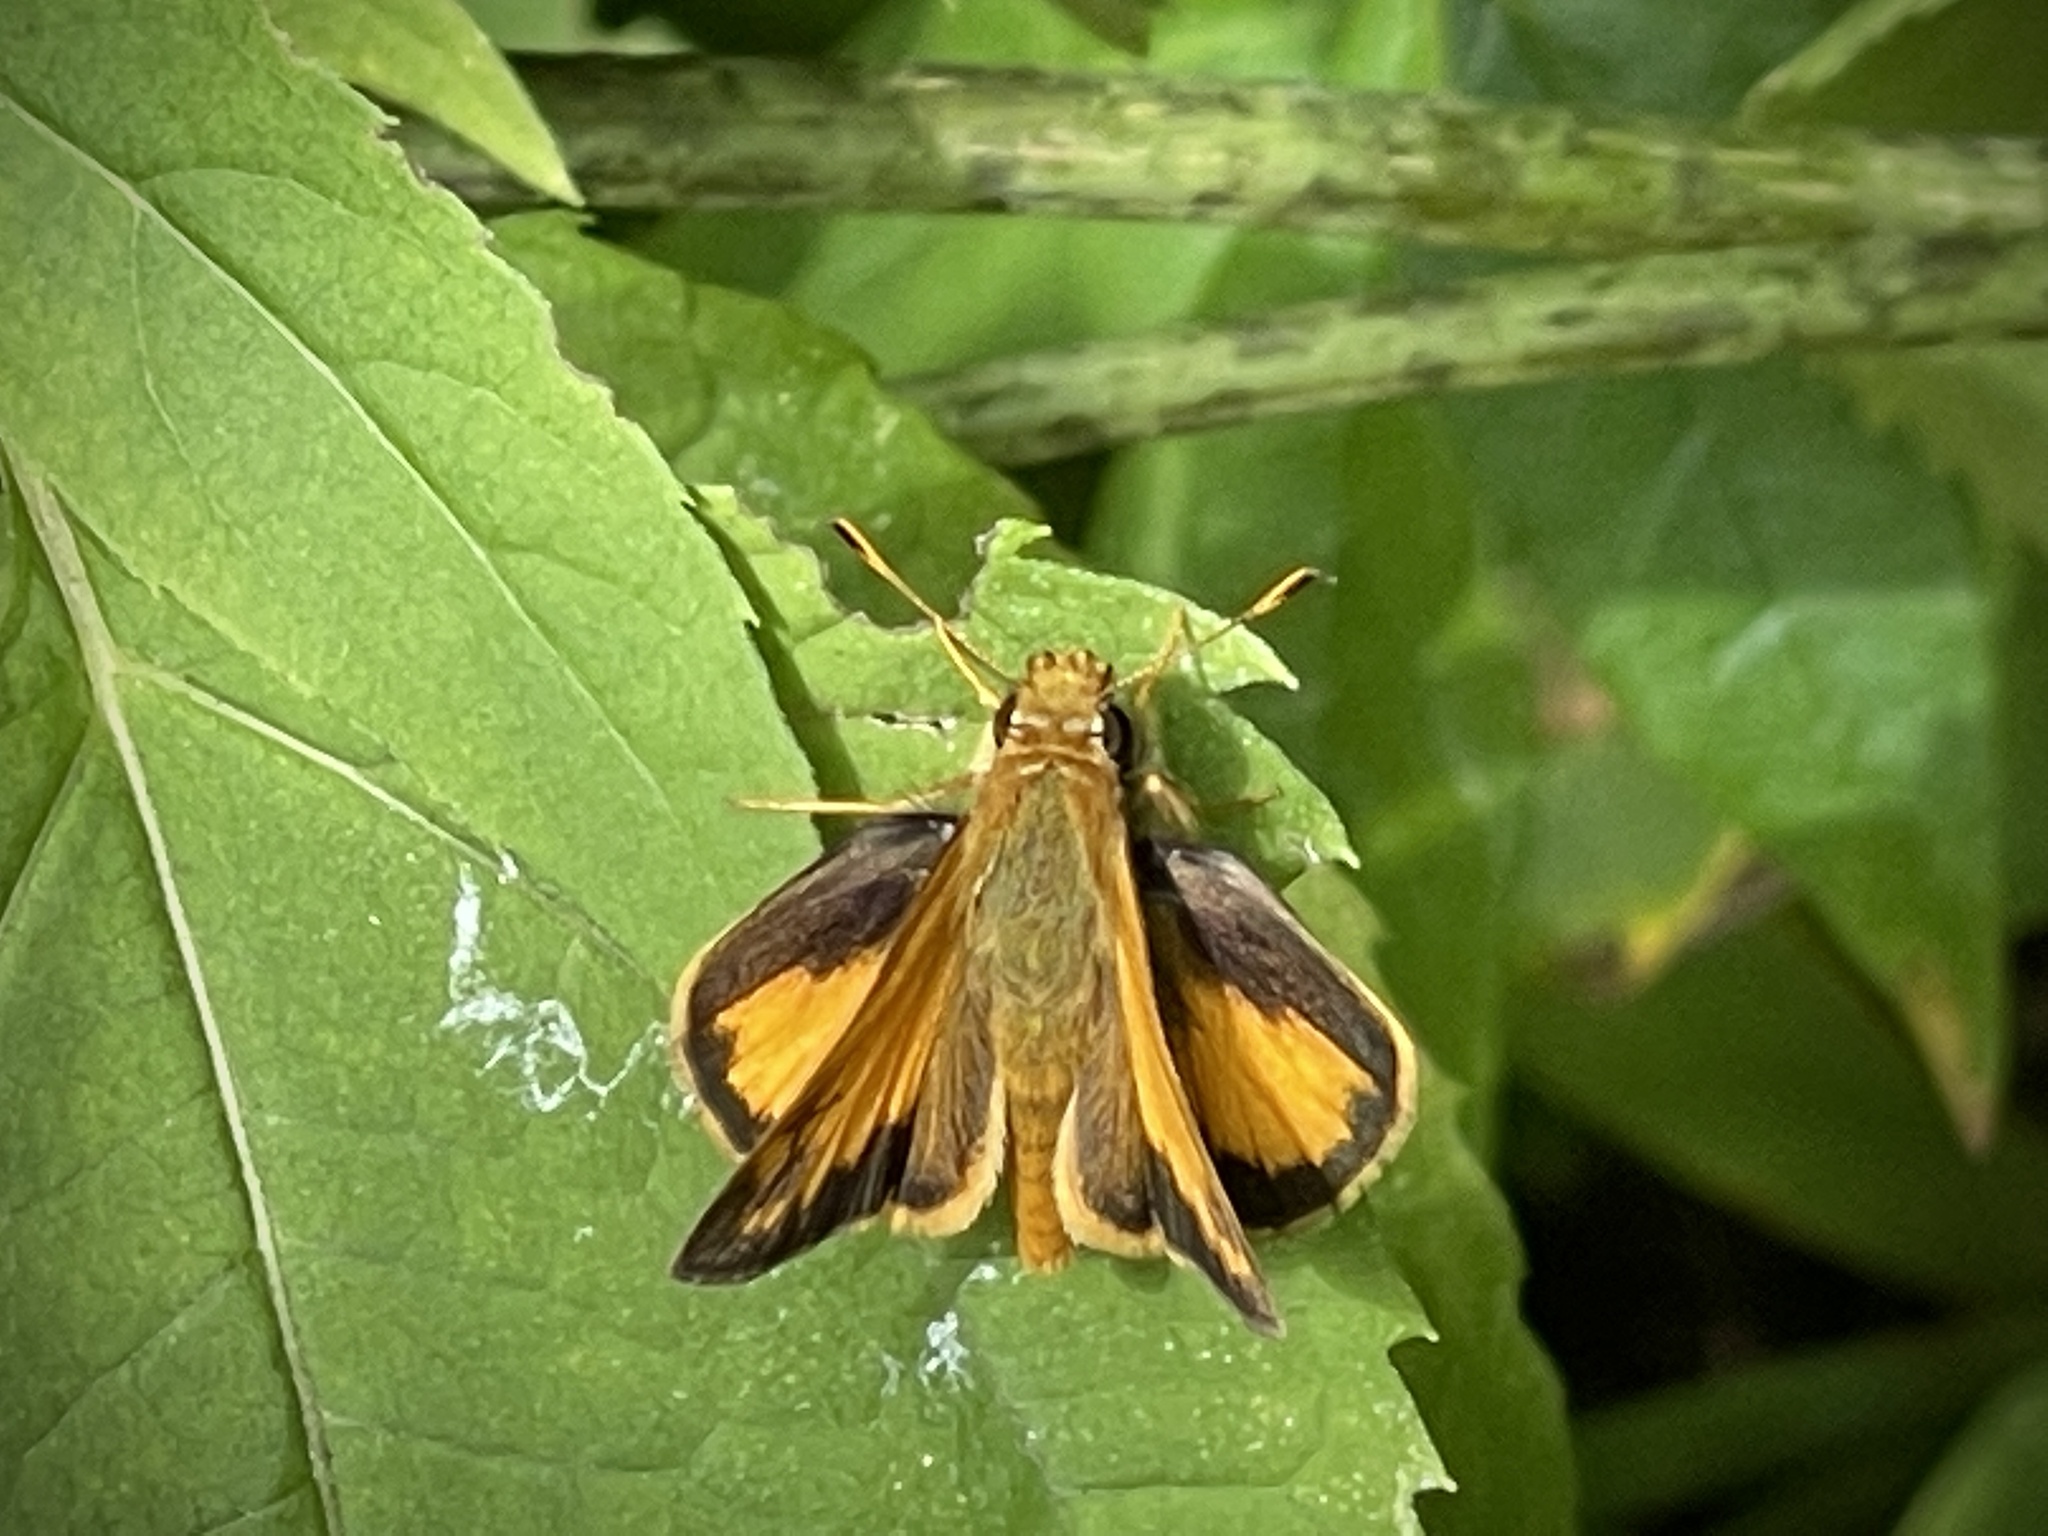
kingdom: Animalia
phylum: Arthropoda
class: Insecta
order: Lepidoptera
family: Hesperiidae
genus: Lon
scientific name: Lon zabulon
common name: Zabulon skipper
